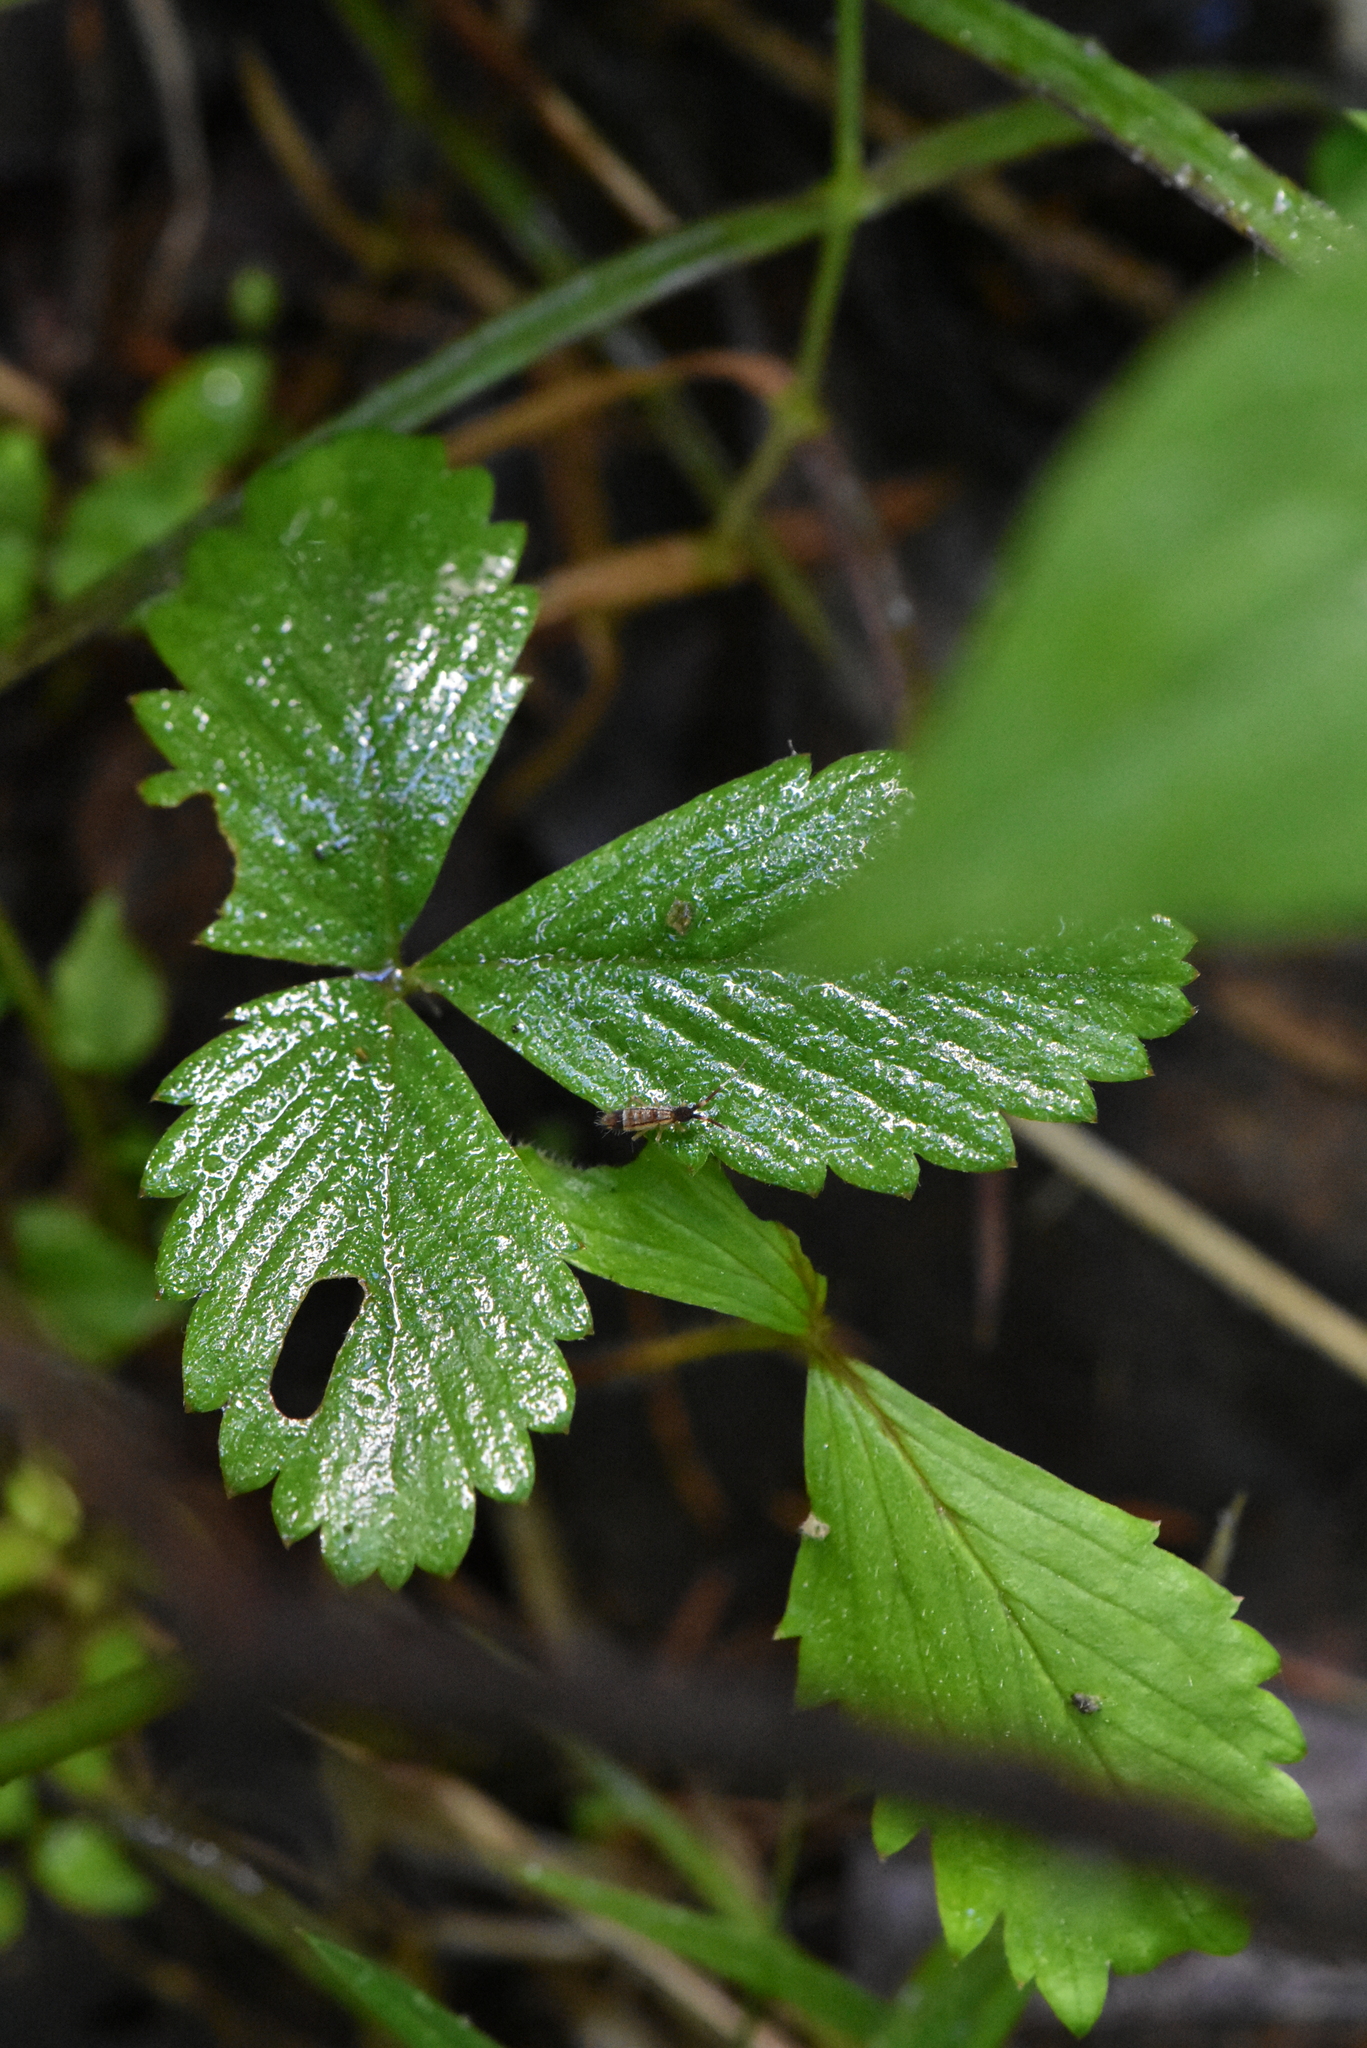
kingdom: Plantae
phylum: Tracheophyta
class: Magnoliopsida
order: Rosales
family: Rosaceae
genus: Fragaria
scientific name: Fragaria vesca
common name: Wild strawberry
